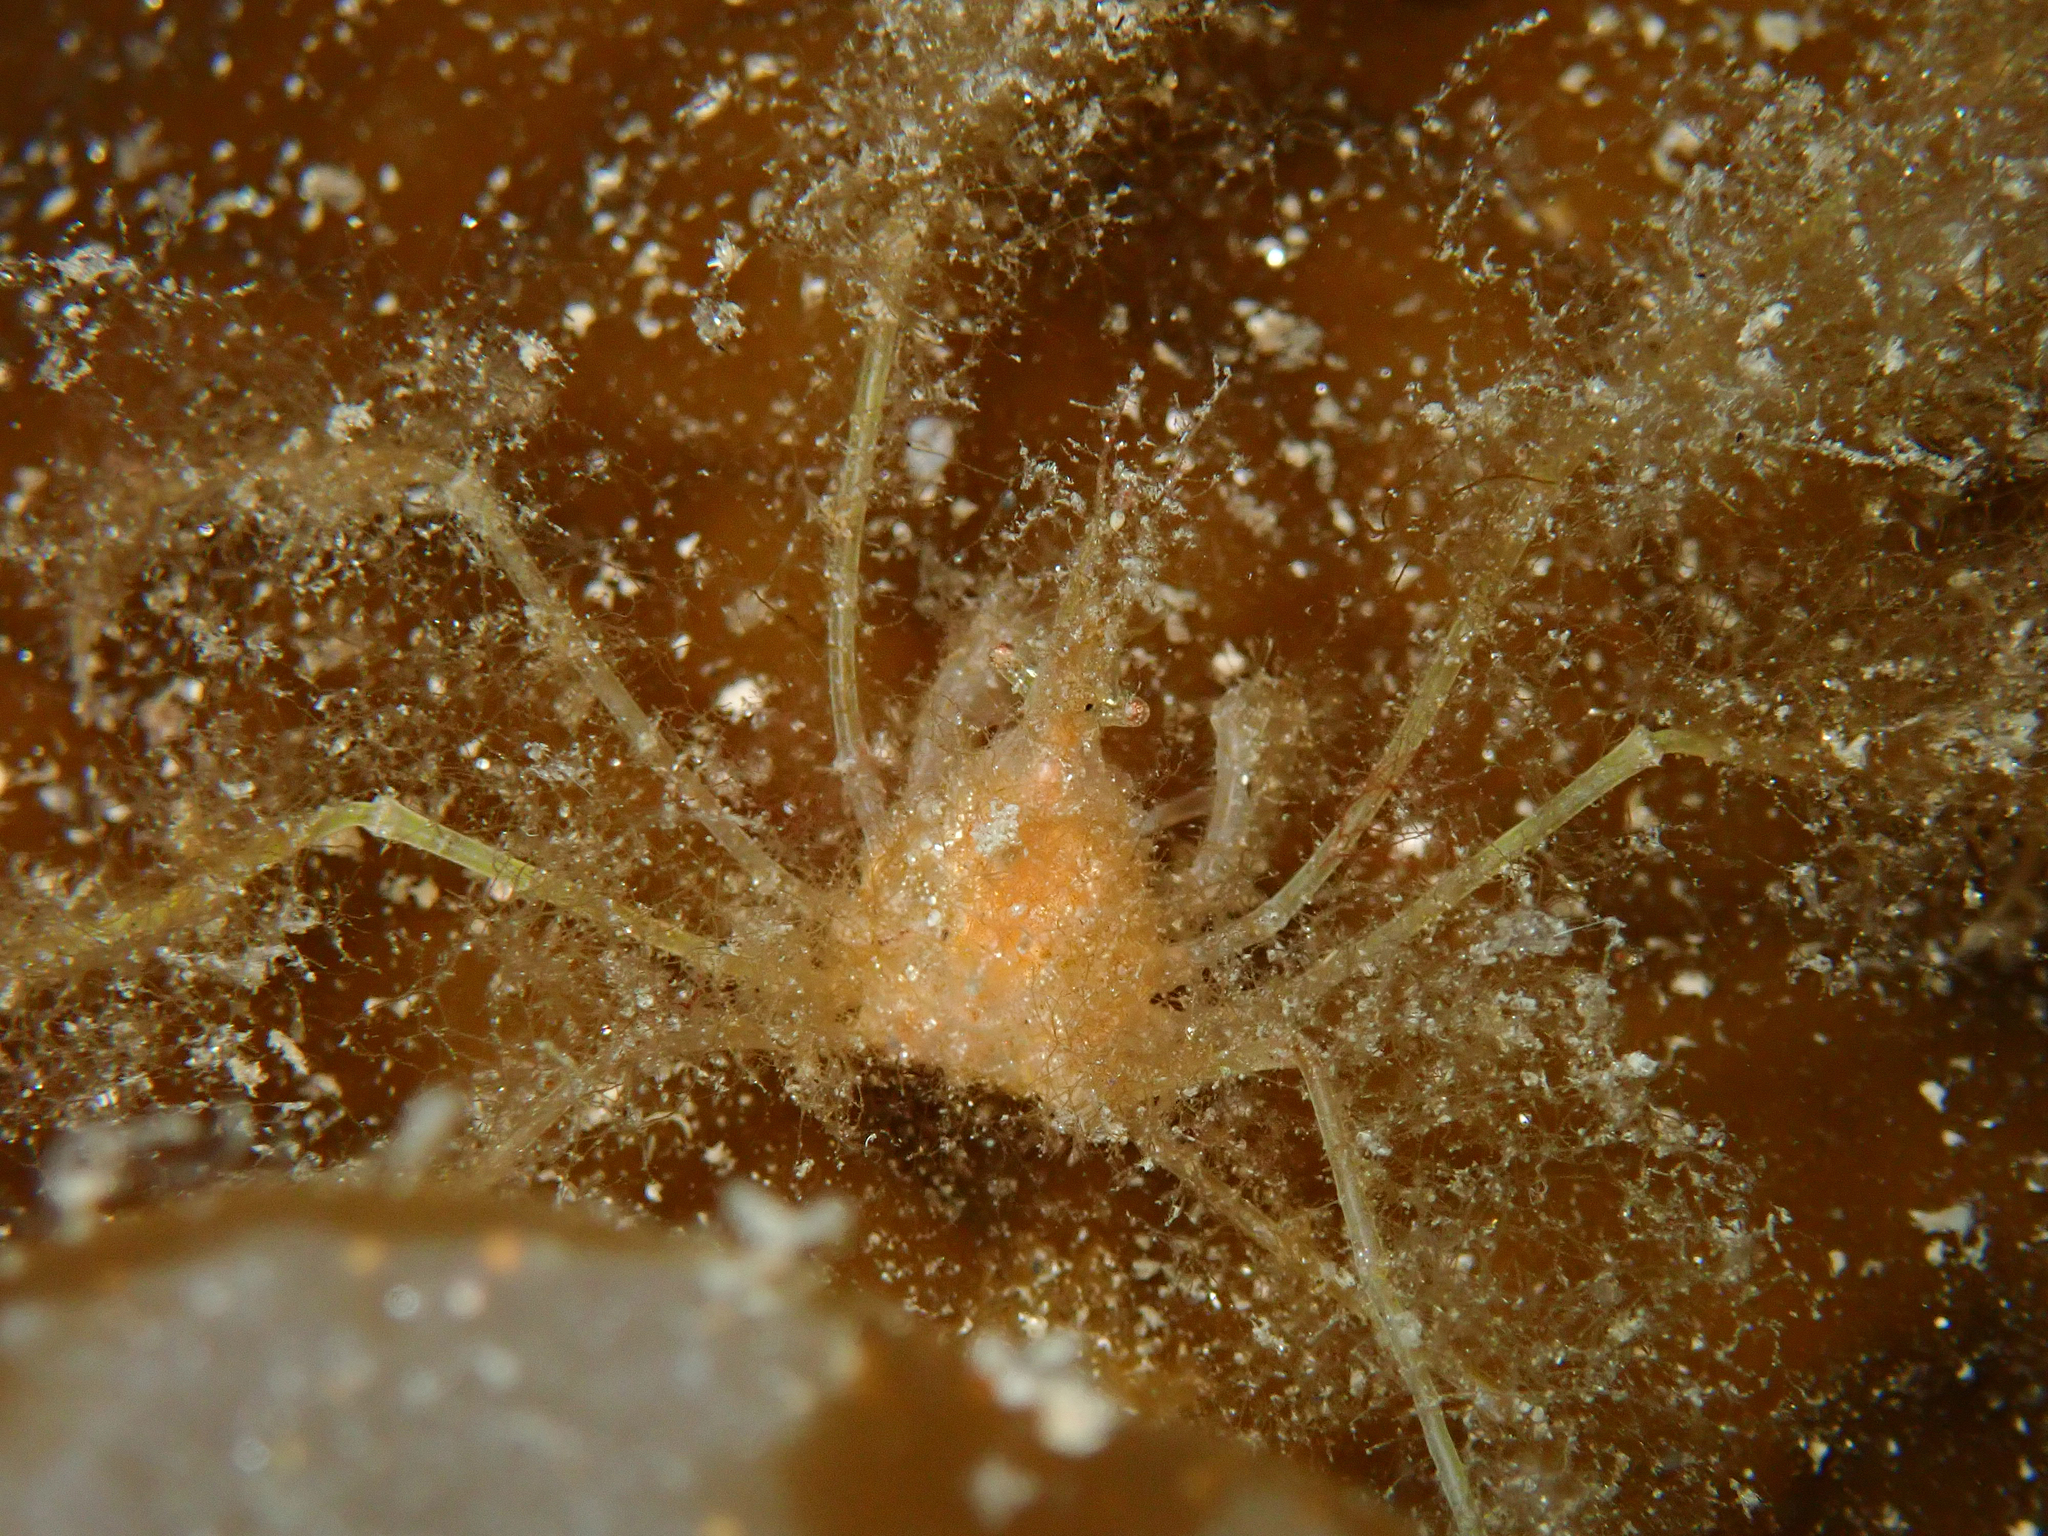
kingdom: Animalia
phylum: Arthropoda
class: Malacostraca
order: Decapoda
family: Inachidae
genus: Macropodia
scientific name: Macropodia rostrata
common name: Long-legged spider crab
